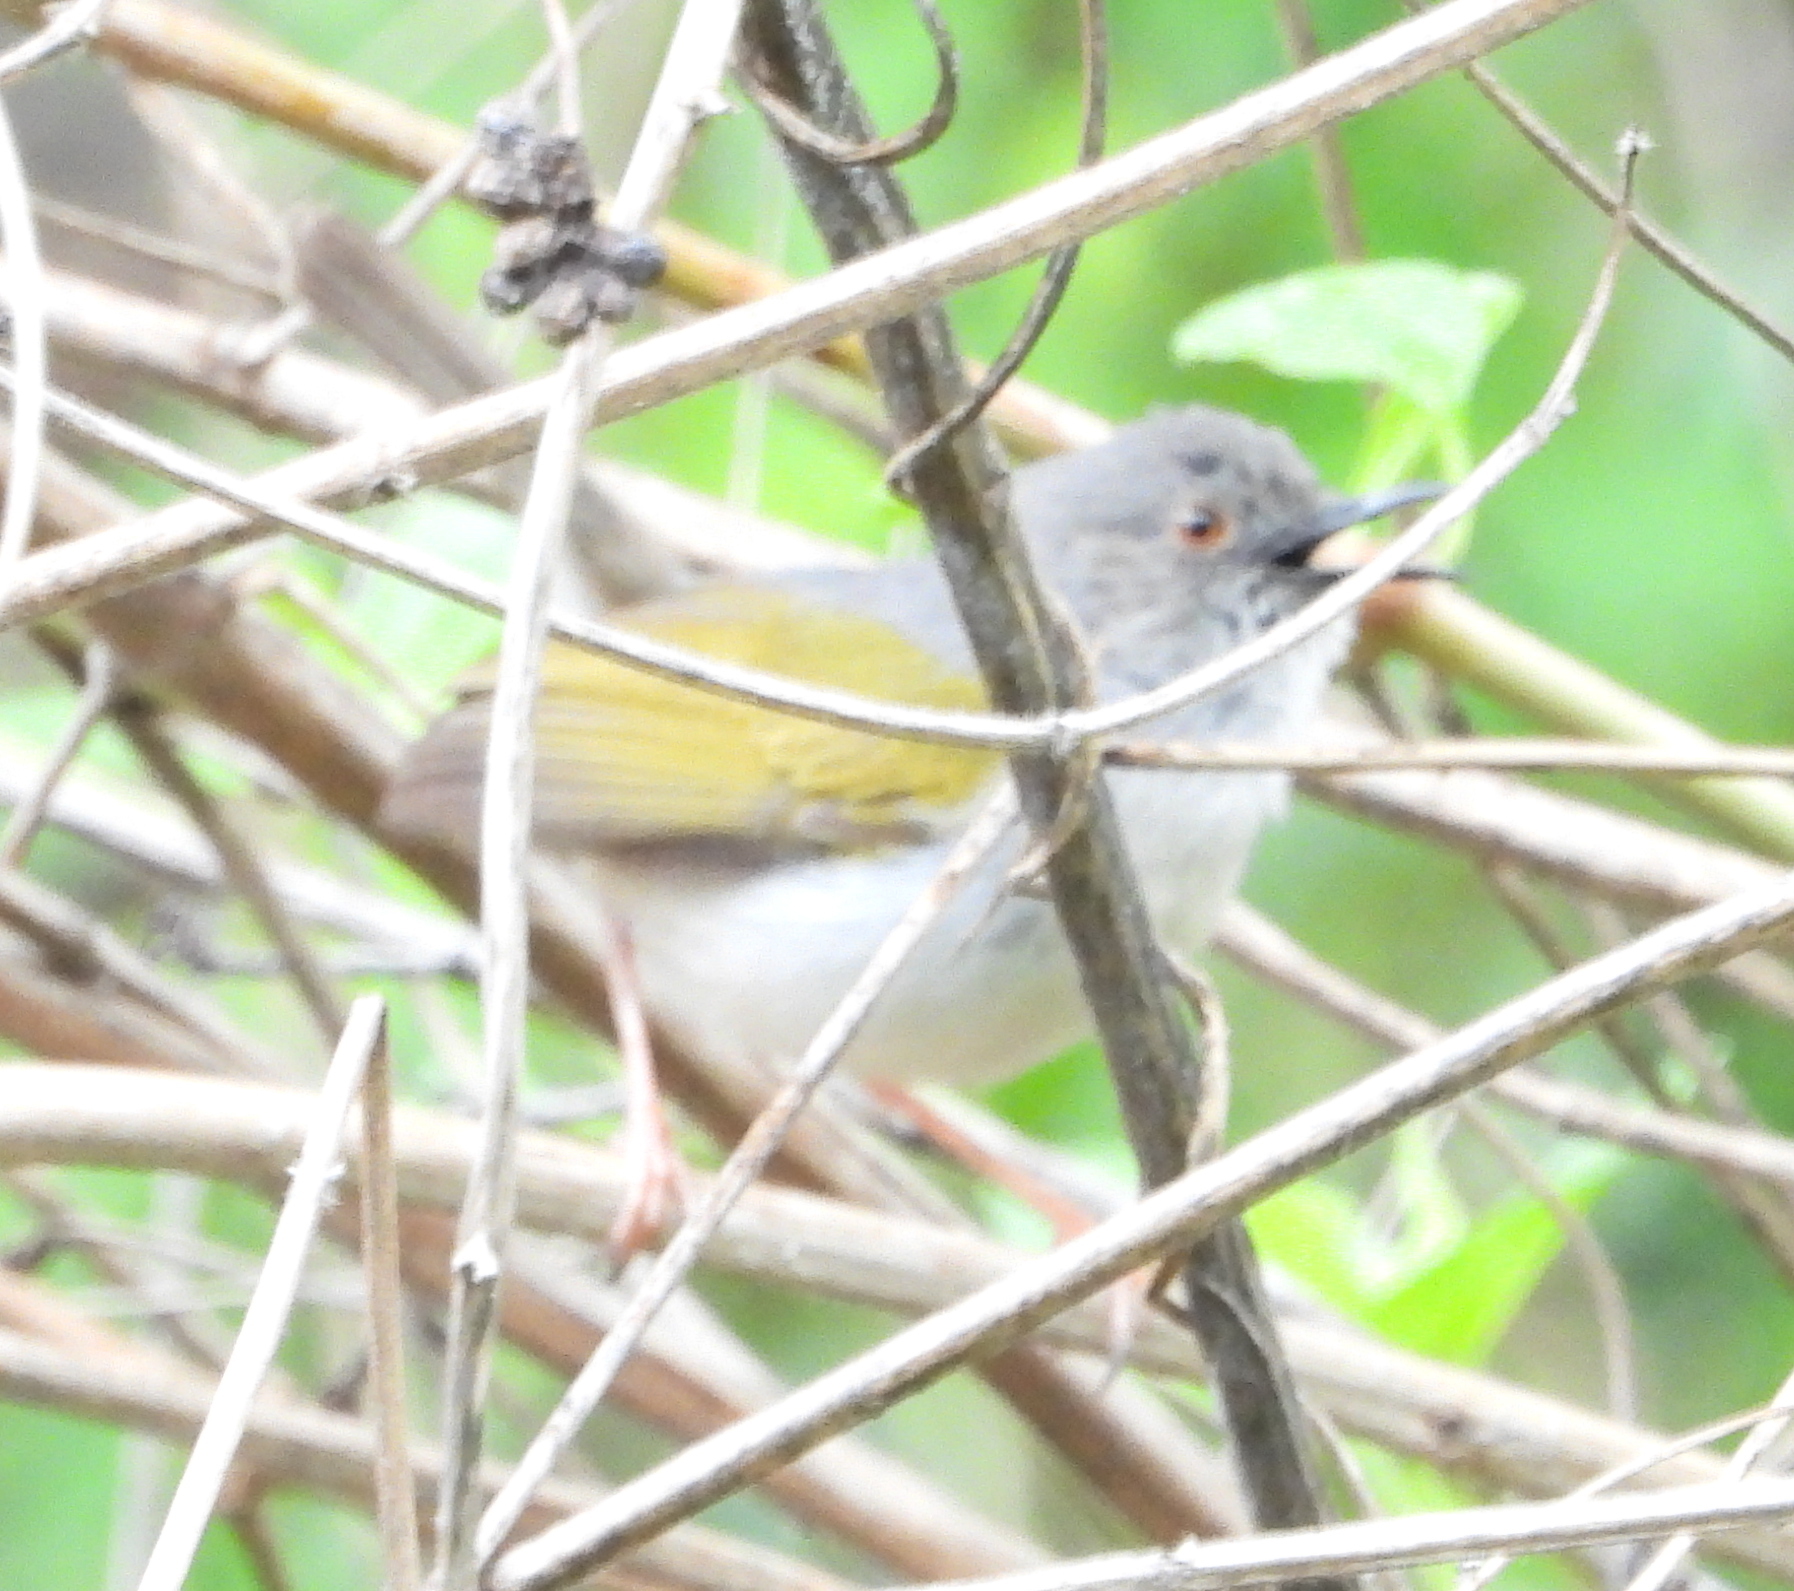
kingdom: Animalia
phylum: Chordata
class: Aves
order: Passeriformes
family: Cisticolidae
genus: Camaroptera
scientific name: Camaroptera brachyura
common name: Green-backed camaroptera
